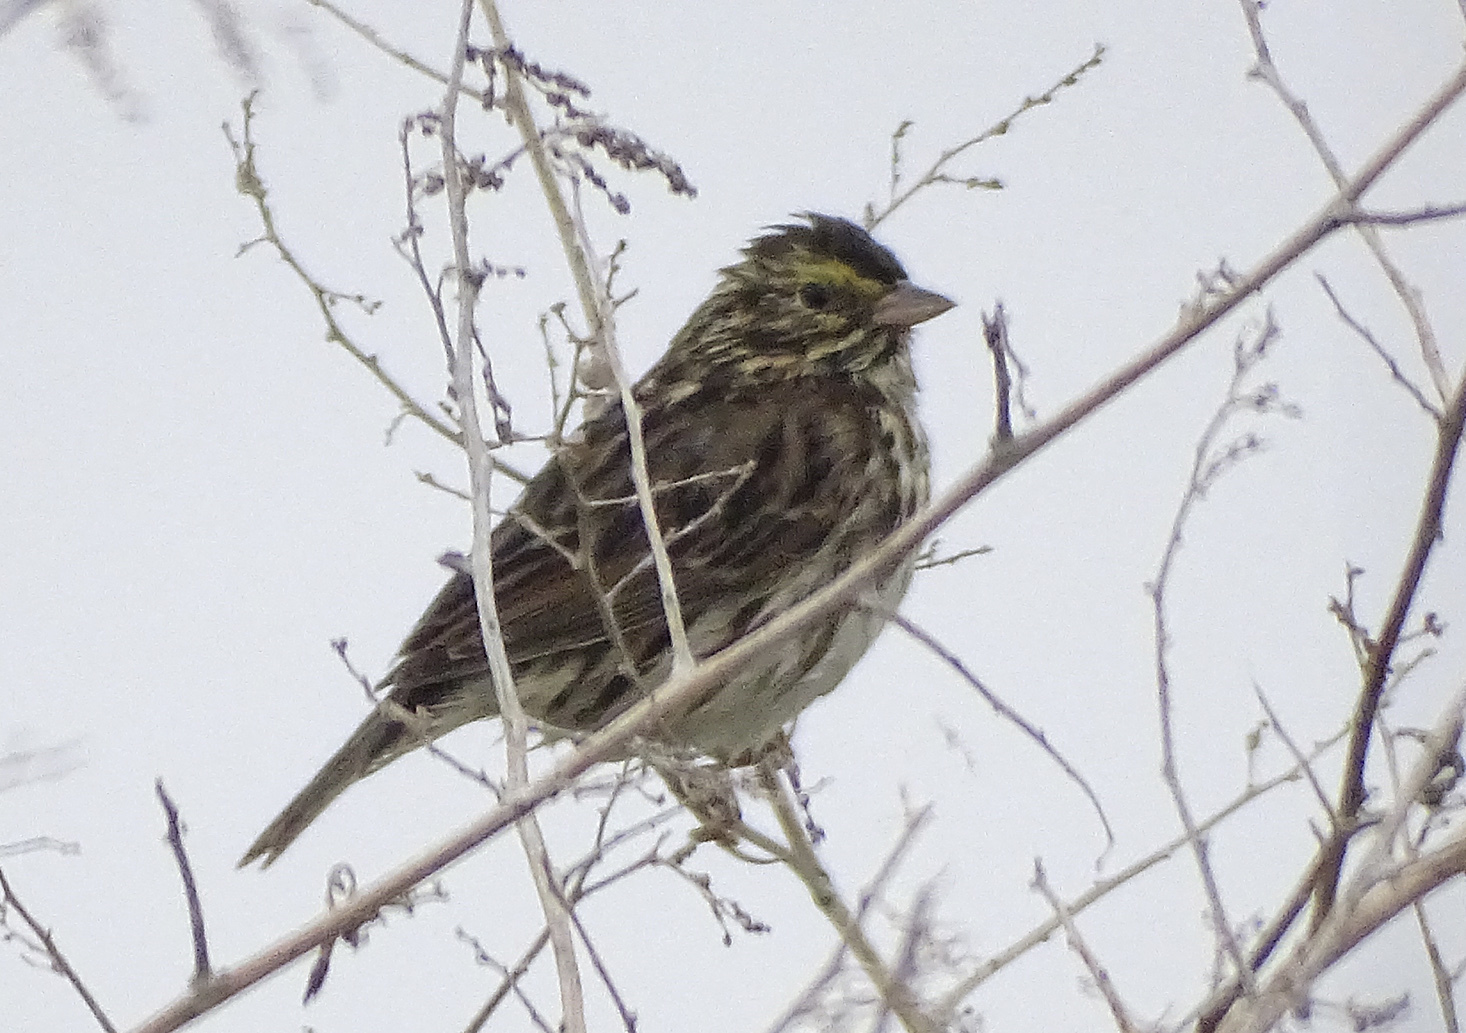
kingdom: Animalia
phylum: Chordata
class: Aves
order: Passeriformes
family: Passerellidae
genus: Passerculus
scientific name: Passerculus sandwichensis
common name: Savannah sparrow
